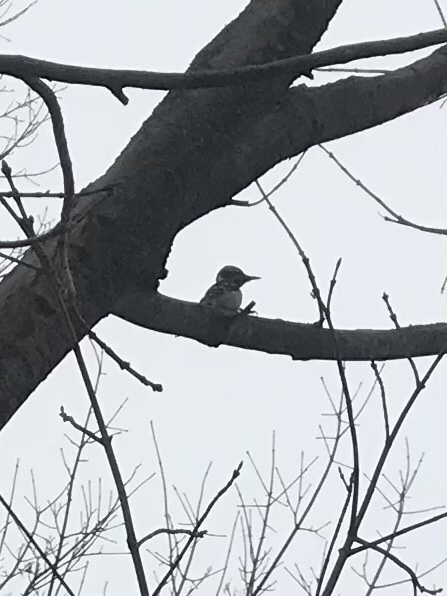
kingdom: Animalia
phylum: Chordata
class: Aves
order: Piciformes
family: Picidae
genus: Leuconotopicus
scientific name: Leuconotopicus villosus
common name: Hairy woodpecker
